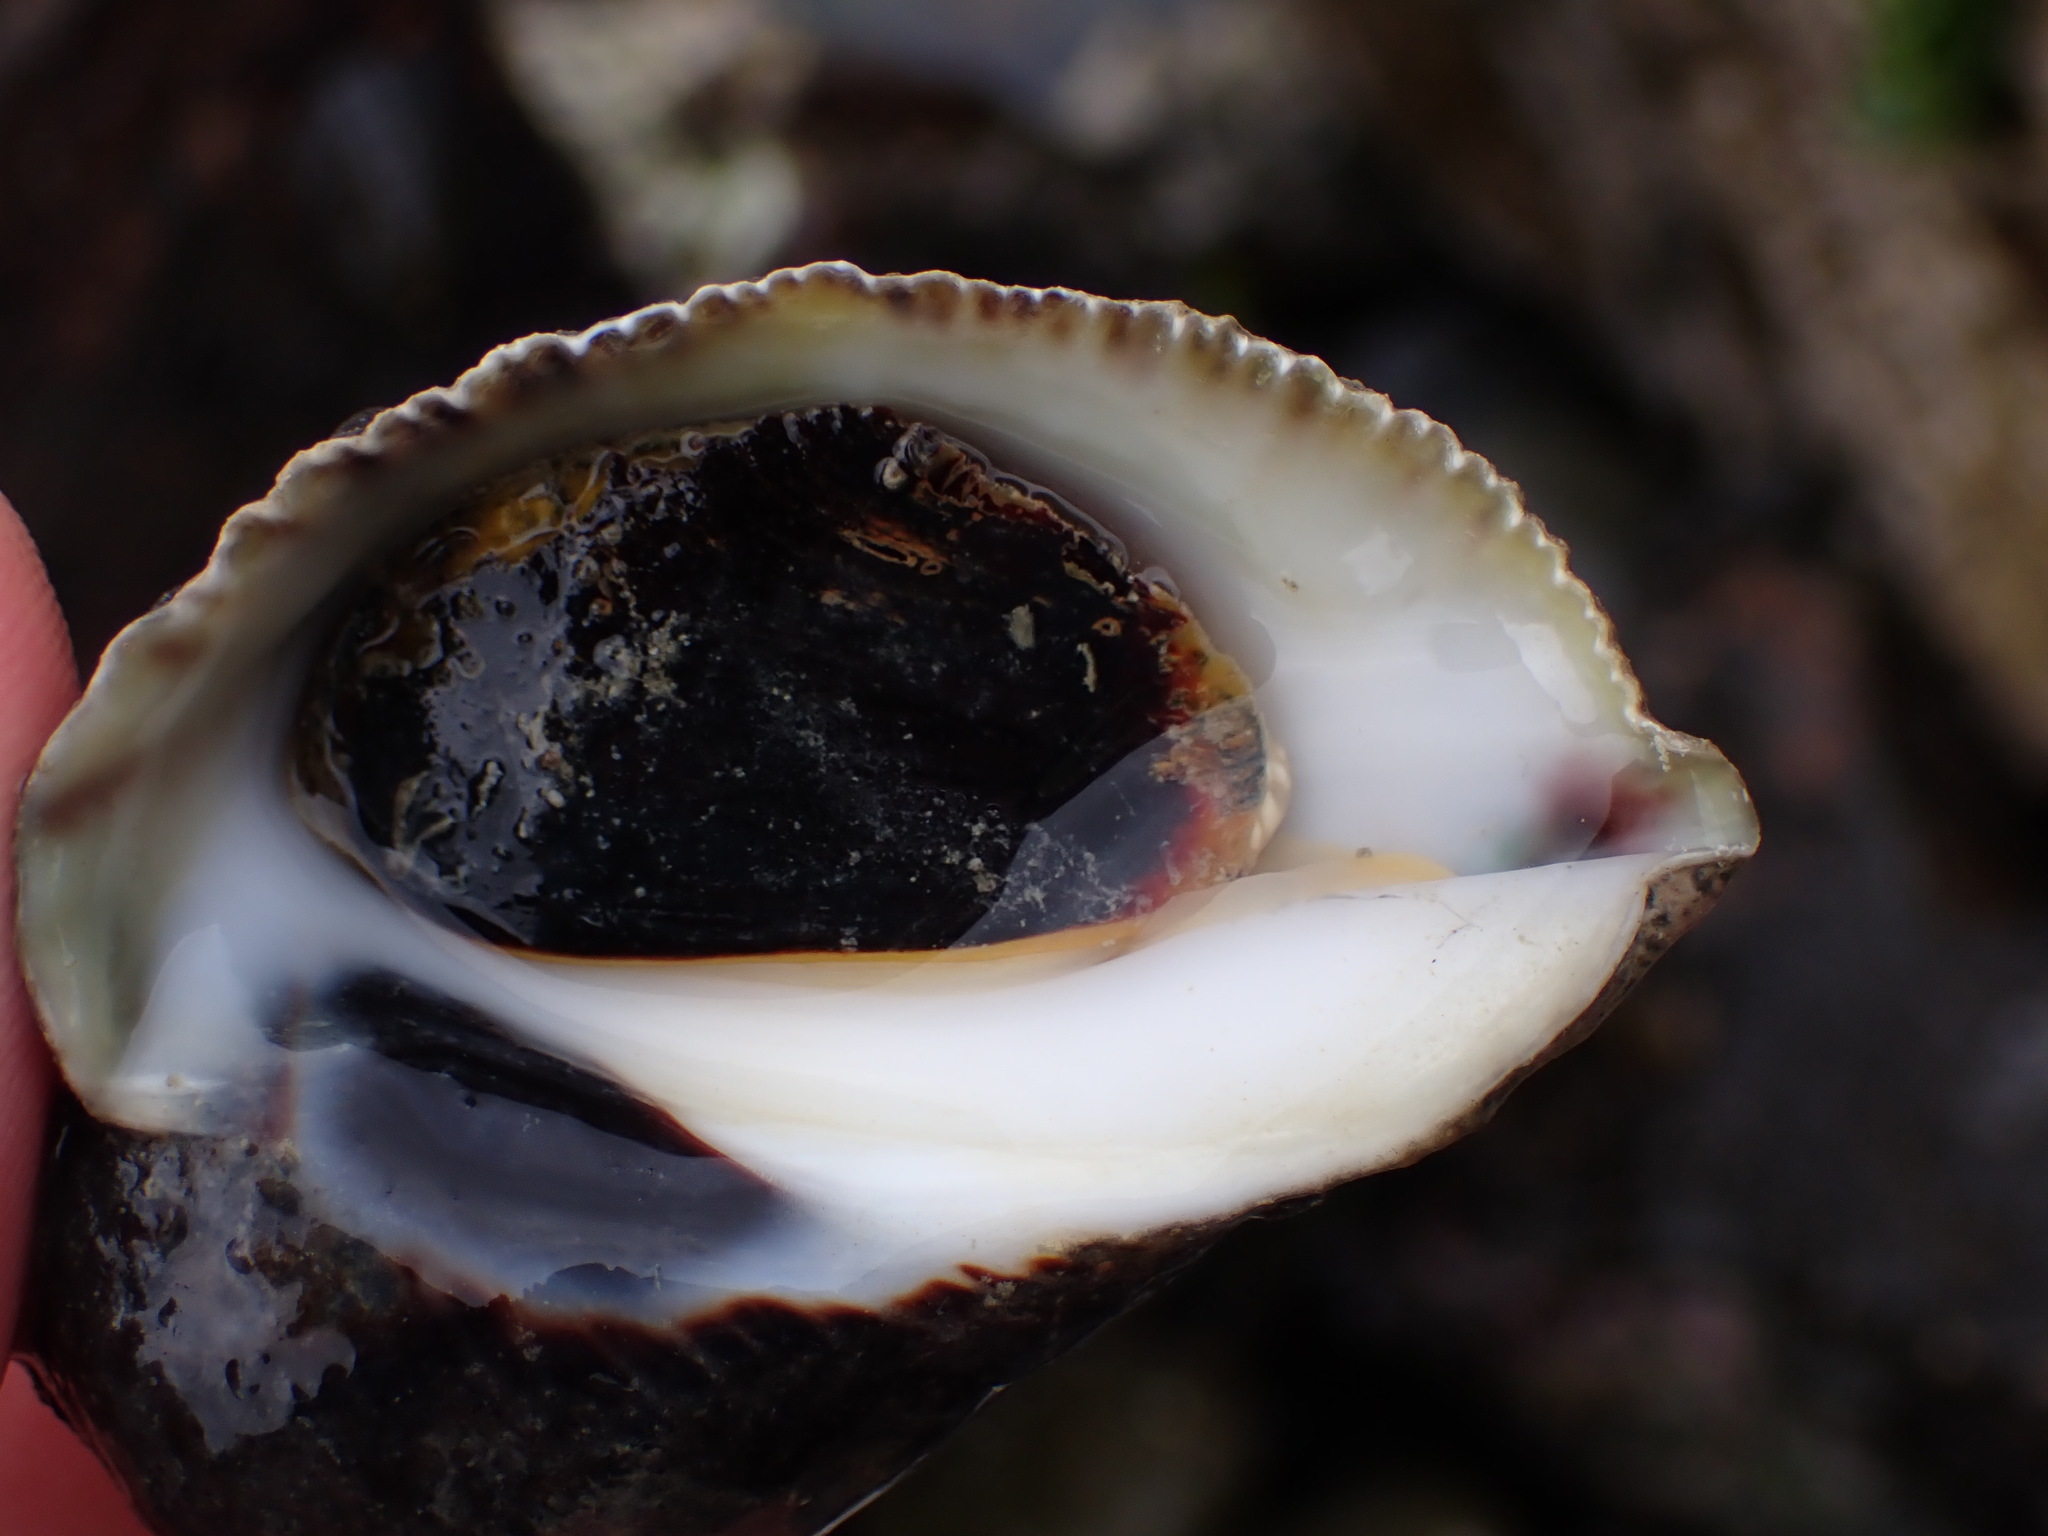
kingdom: Animalia
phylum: Mollusca
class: Gastropoda
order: Neogastropoda
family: Muricidae
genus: Haustrum
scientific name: Haustrum haustorium
